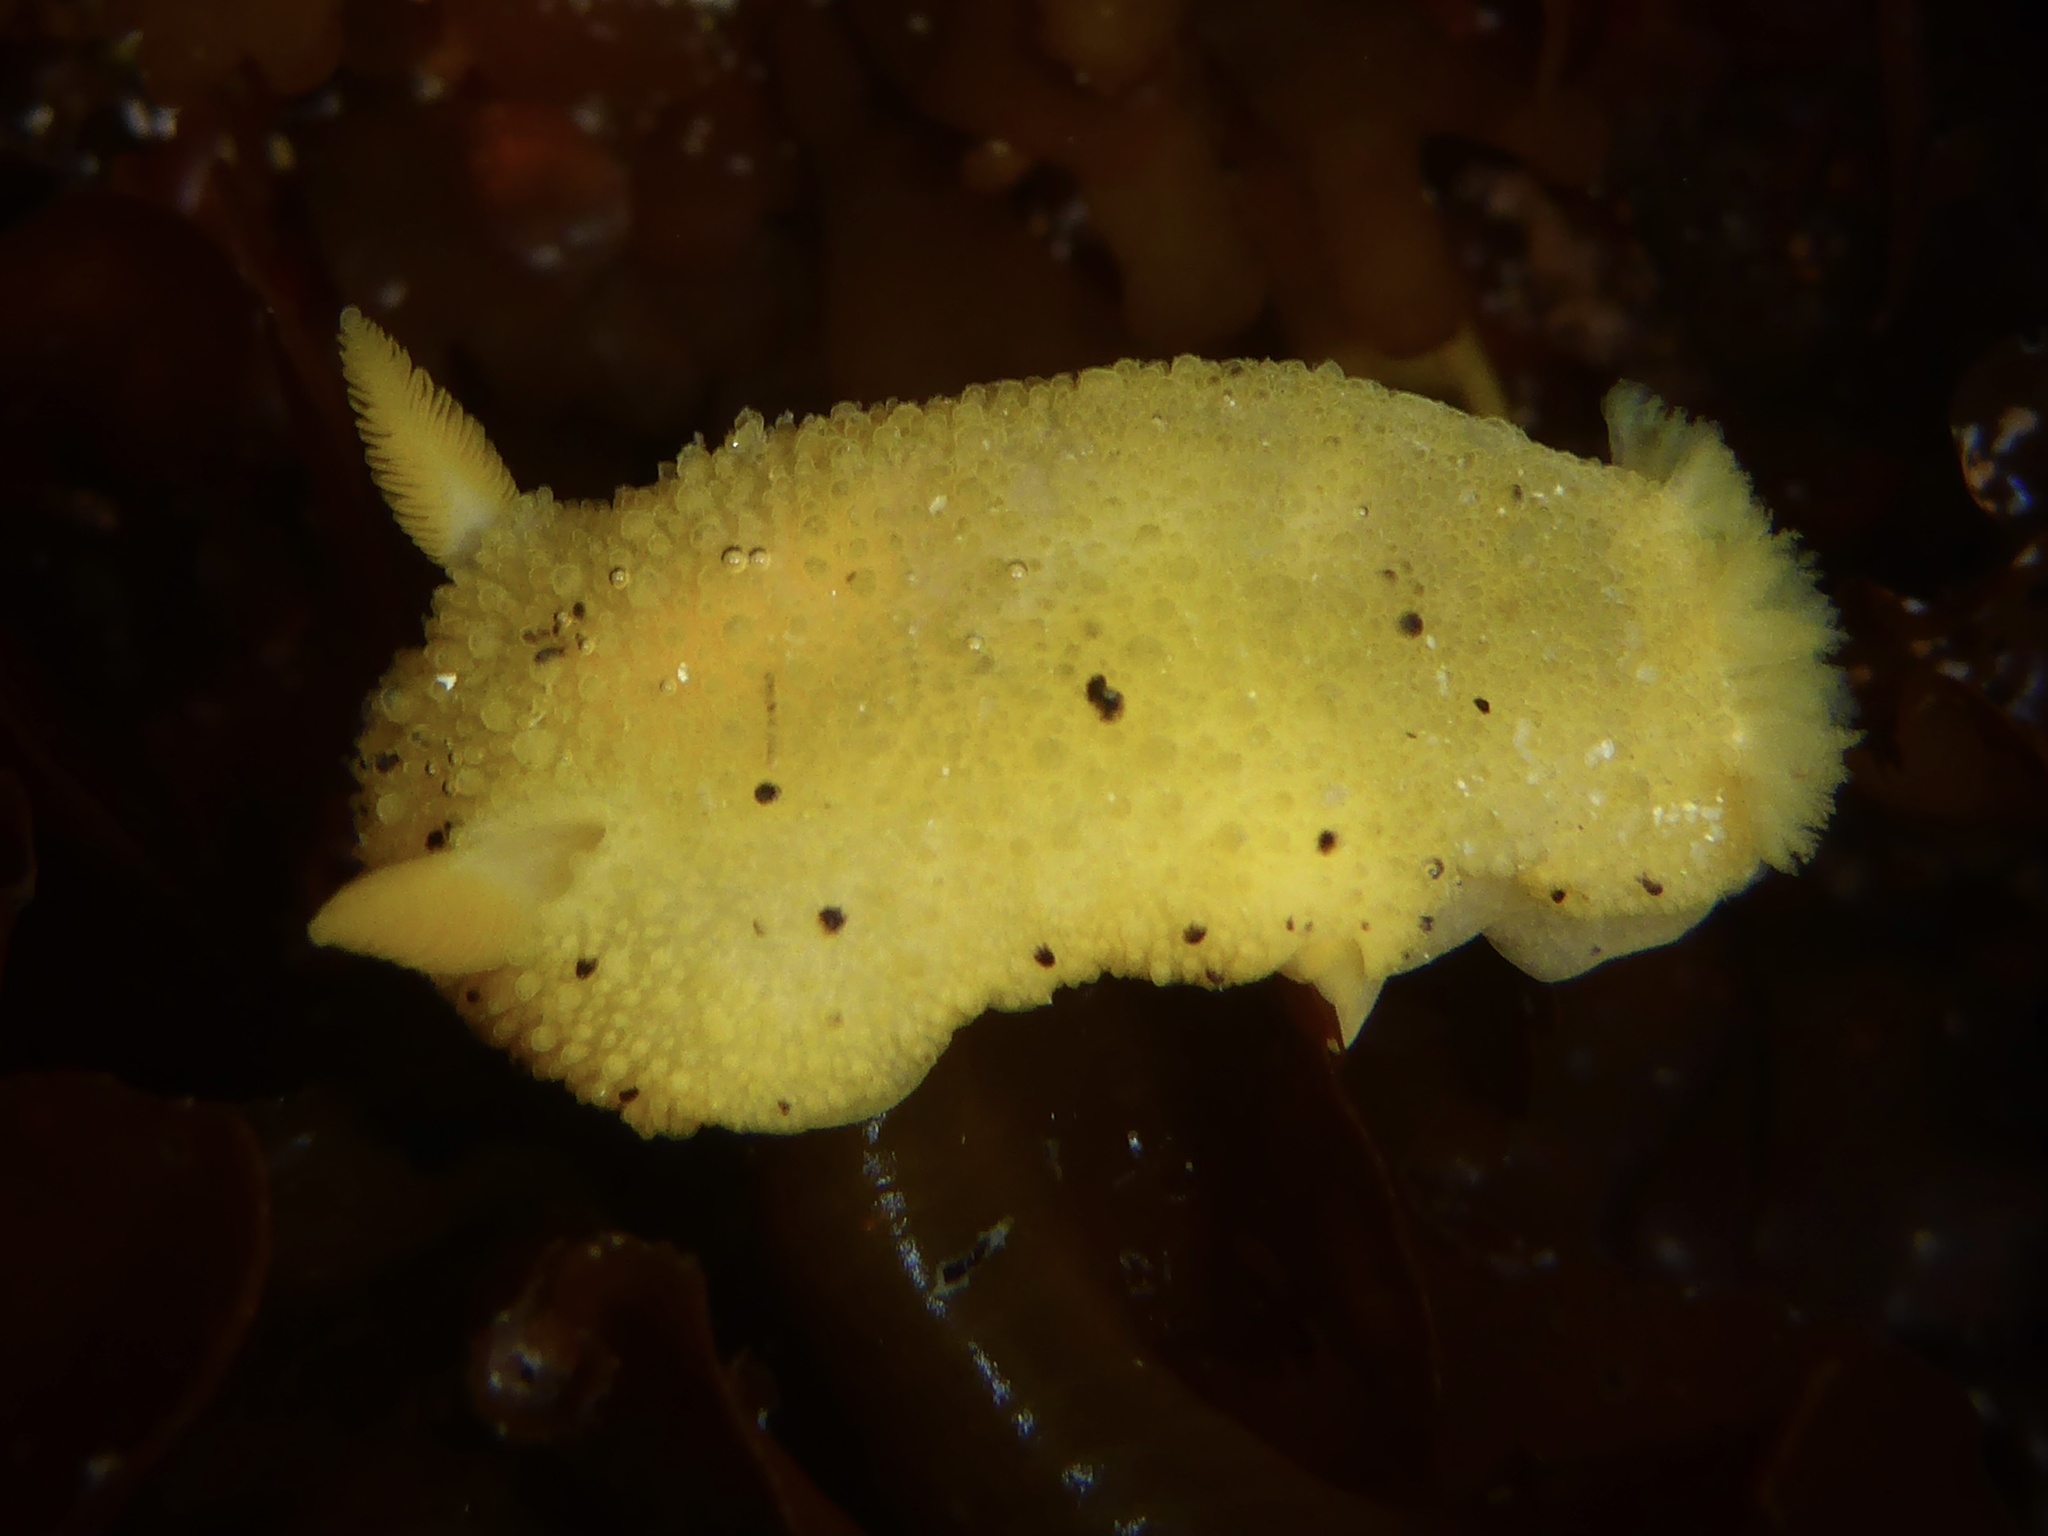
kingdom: Animalia
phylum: Mollusca
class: Gastropoda
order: Nudibranchia
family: Dorididae
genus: Doris
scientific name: Doris montereyensis
